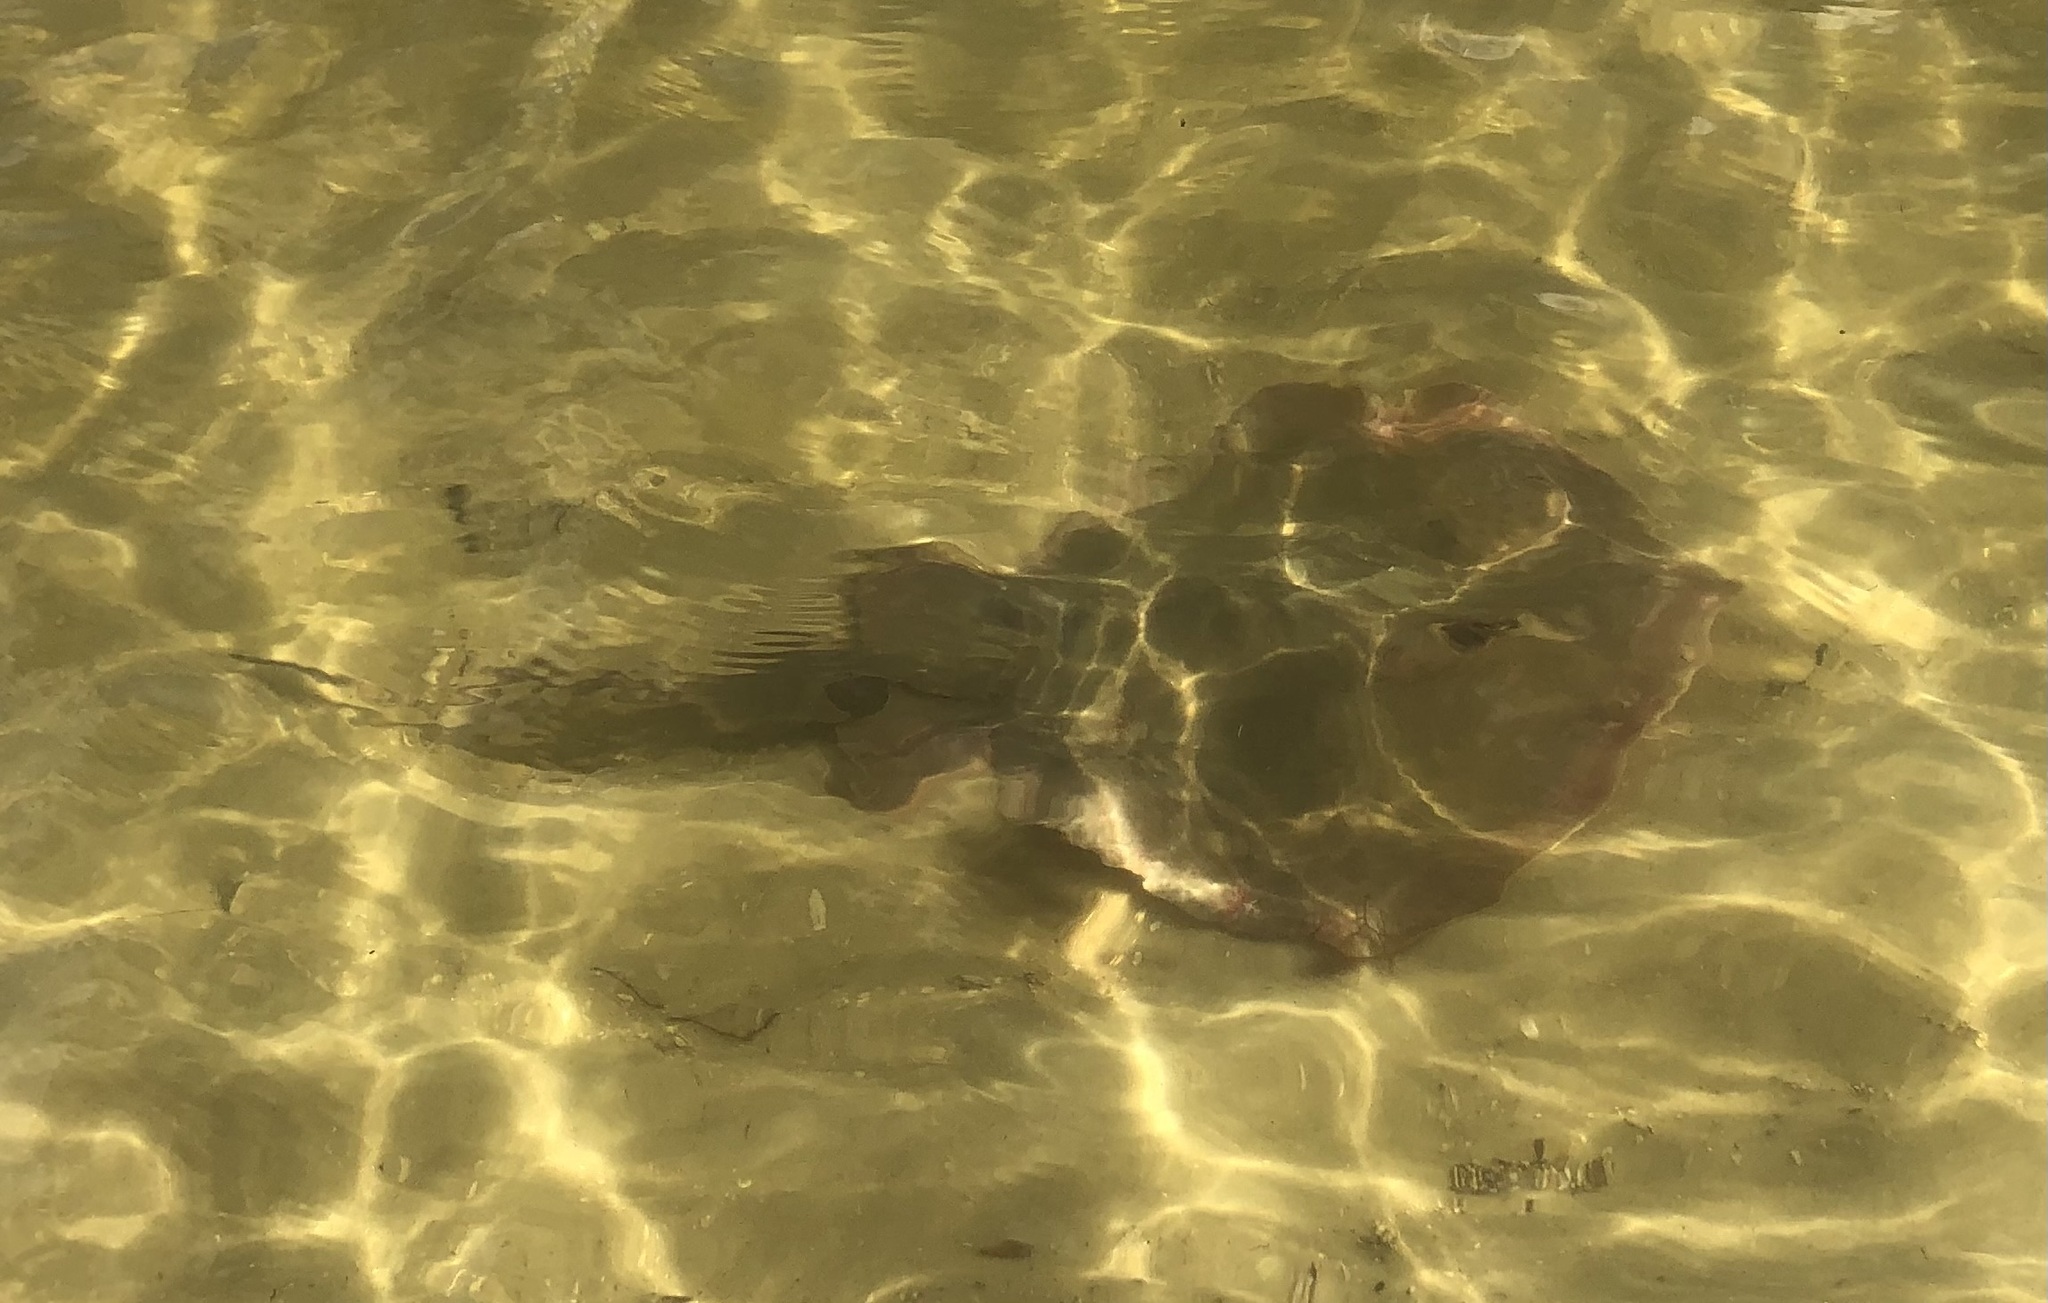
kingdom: Animalia
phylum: Chordata
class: Elasmobranchii
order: Myliobatiformes
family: Dasyatidae
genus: Hypanus
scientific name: Hypanus sabinus
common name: Atlantic stingray
